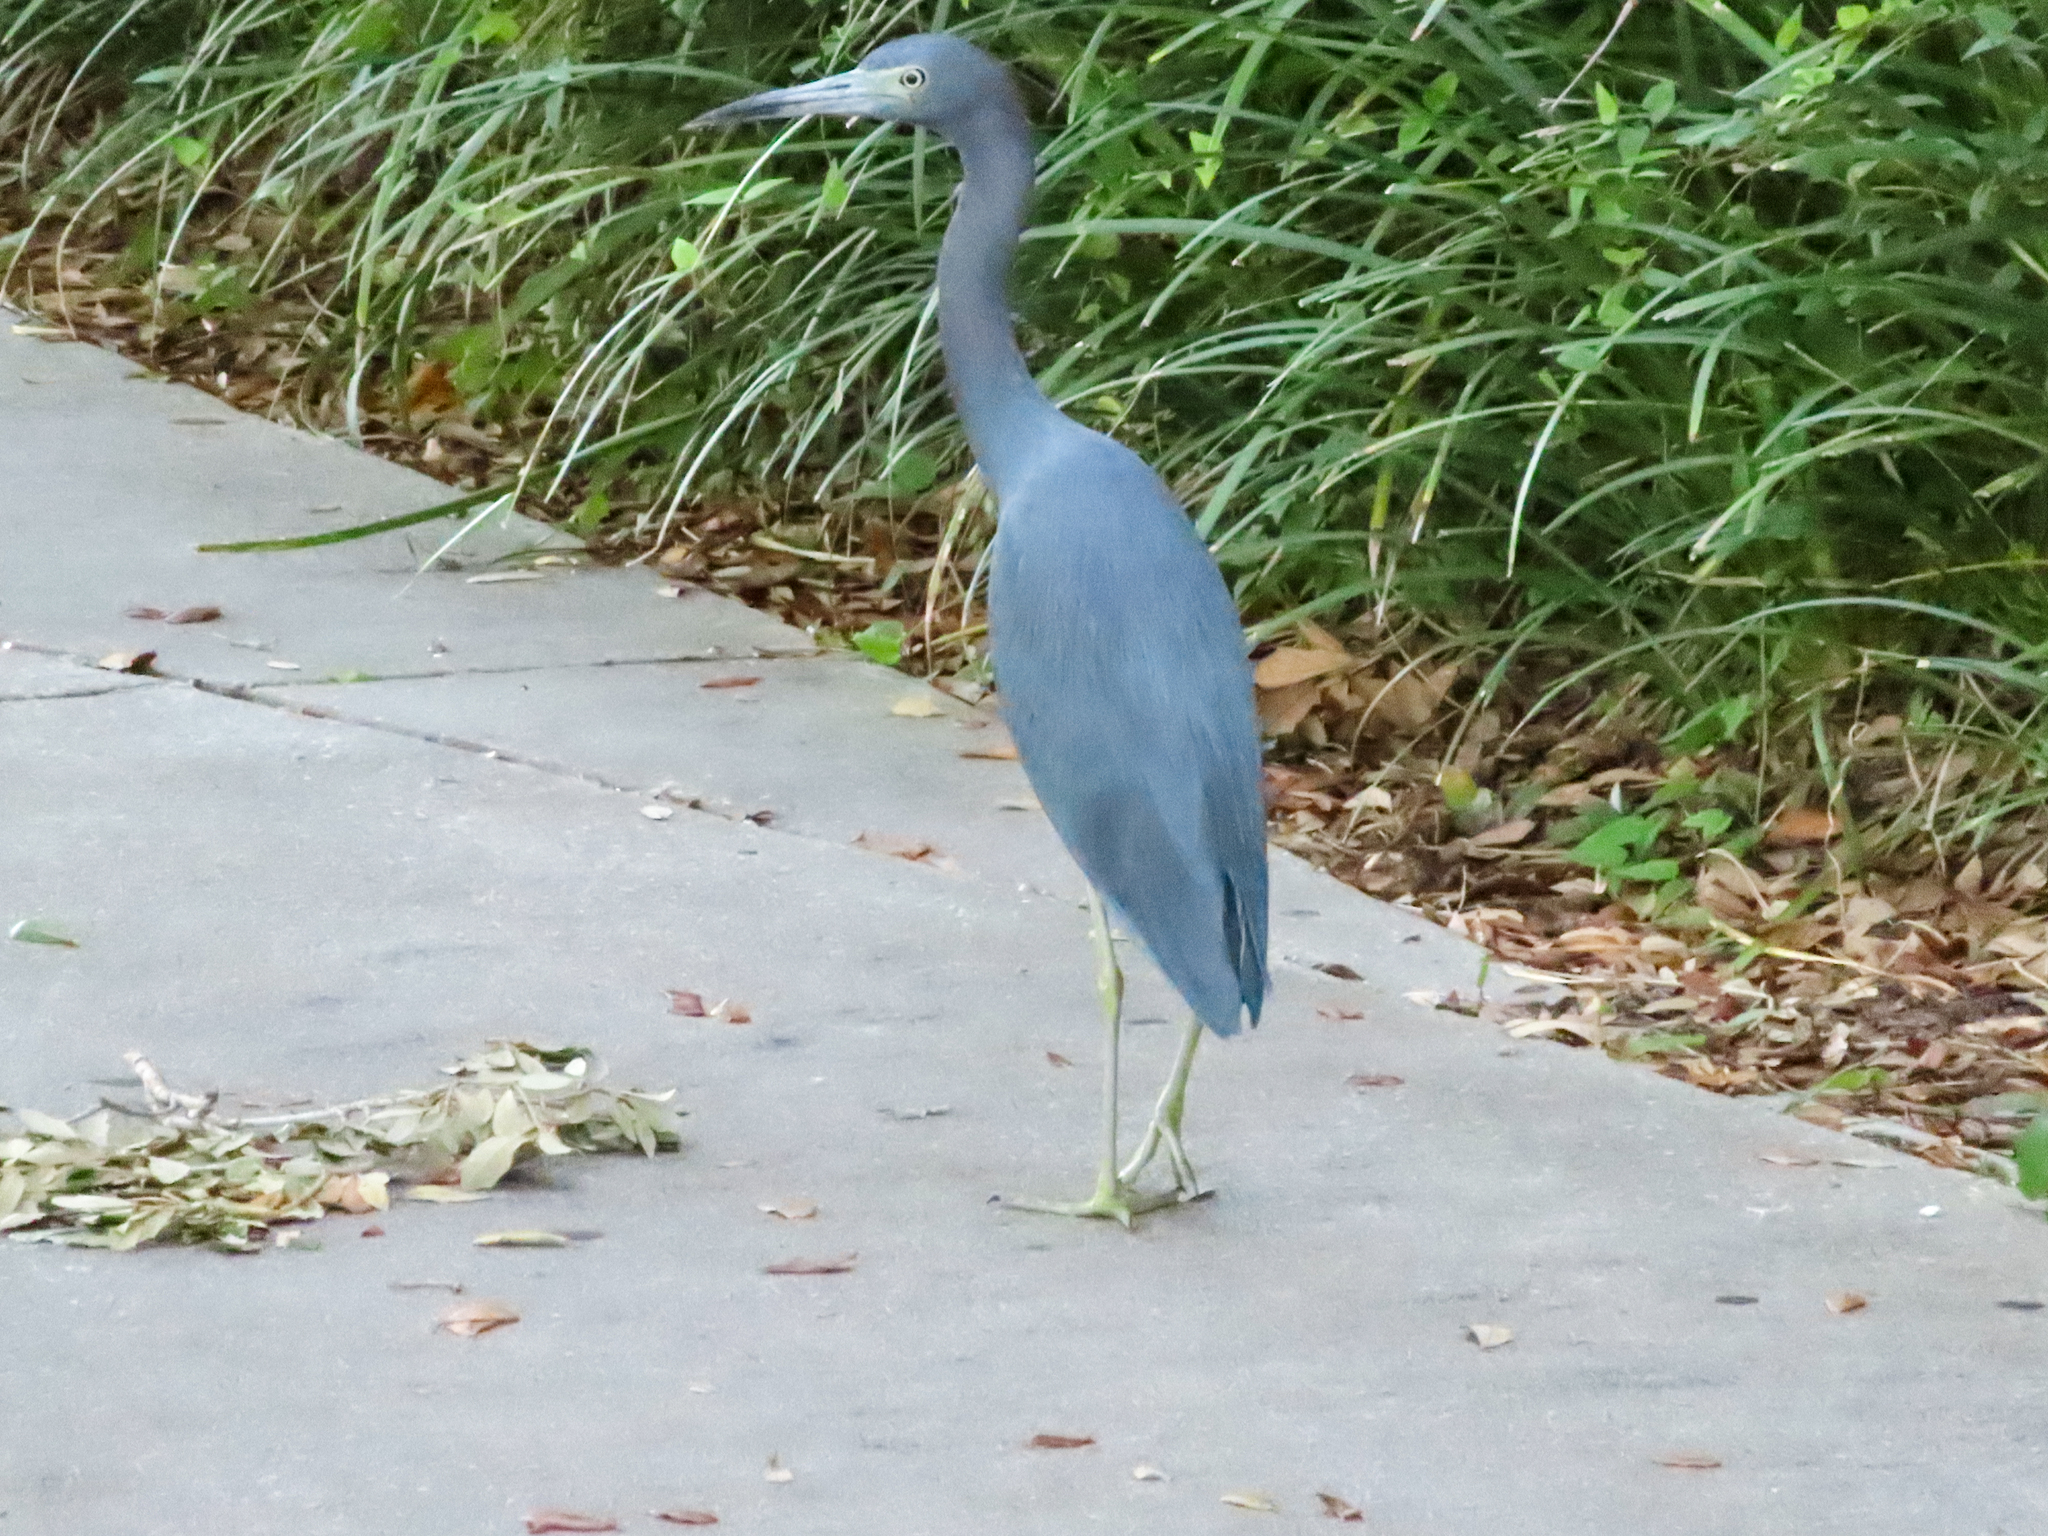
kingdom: Animalia
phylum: Chordata
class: Aves
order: Pelecaniformes
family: Ardeidae
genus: Egretta
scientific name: Egretta caerulea
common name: Little blue heron
